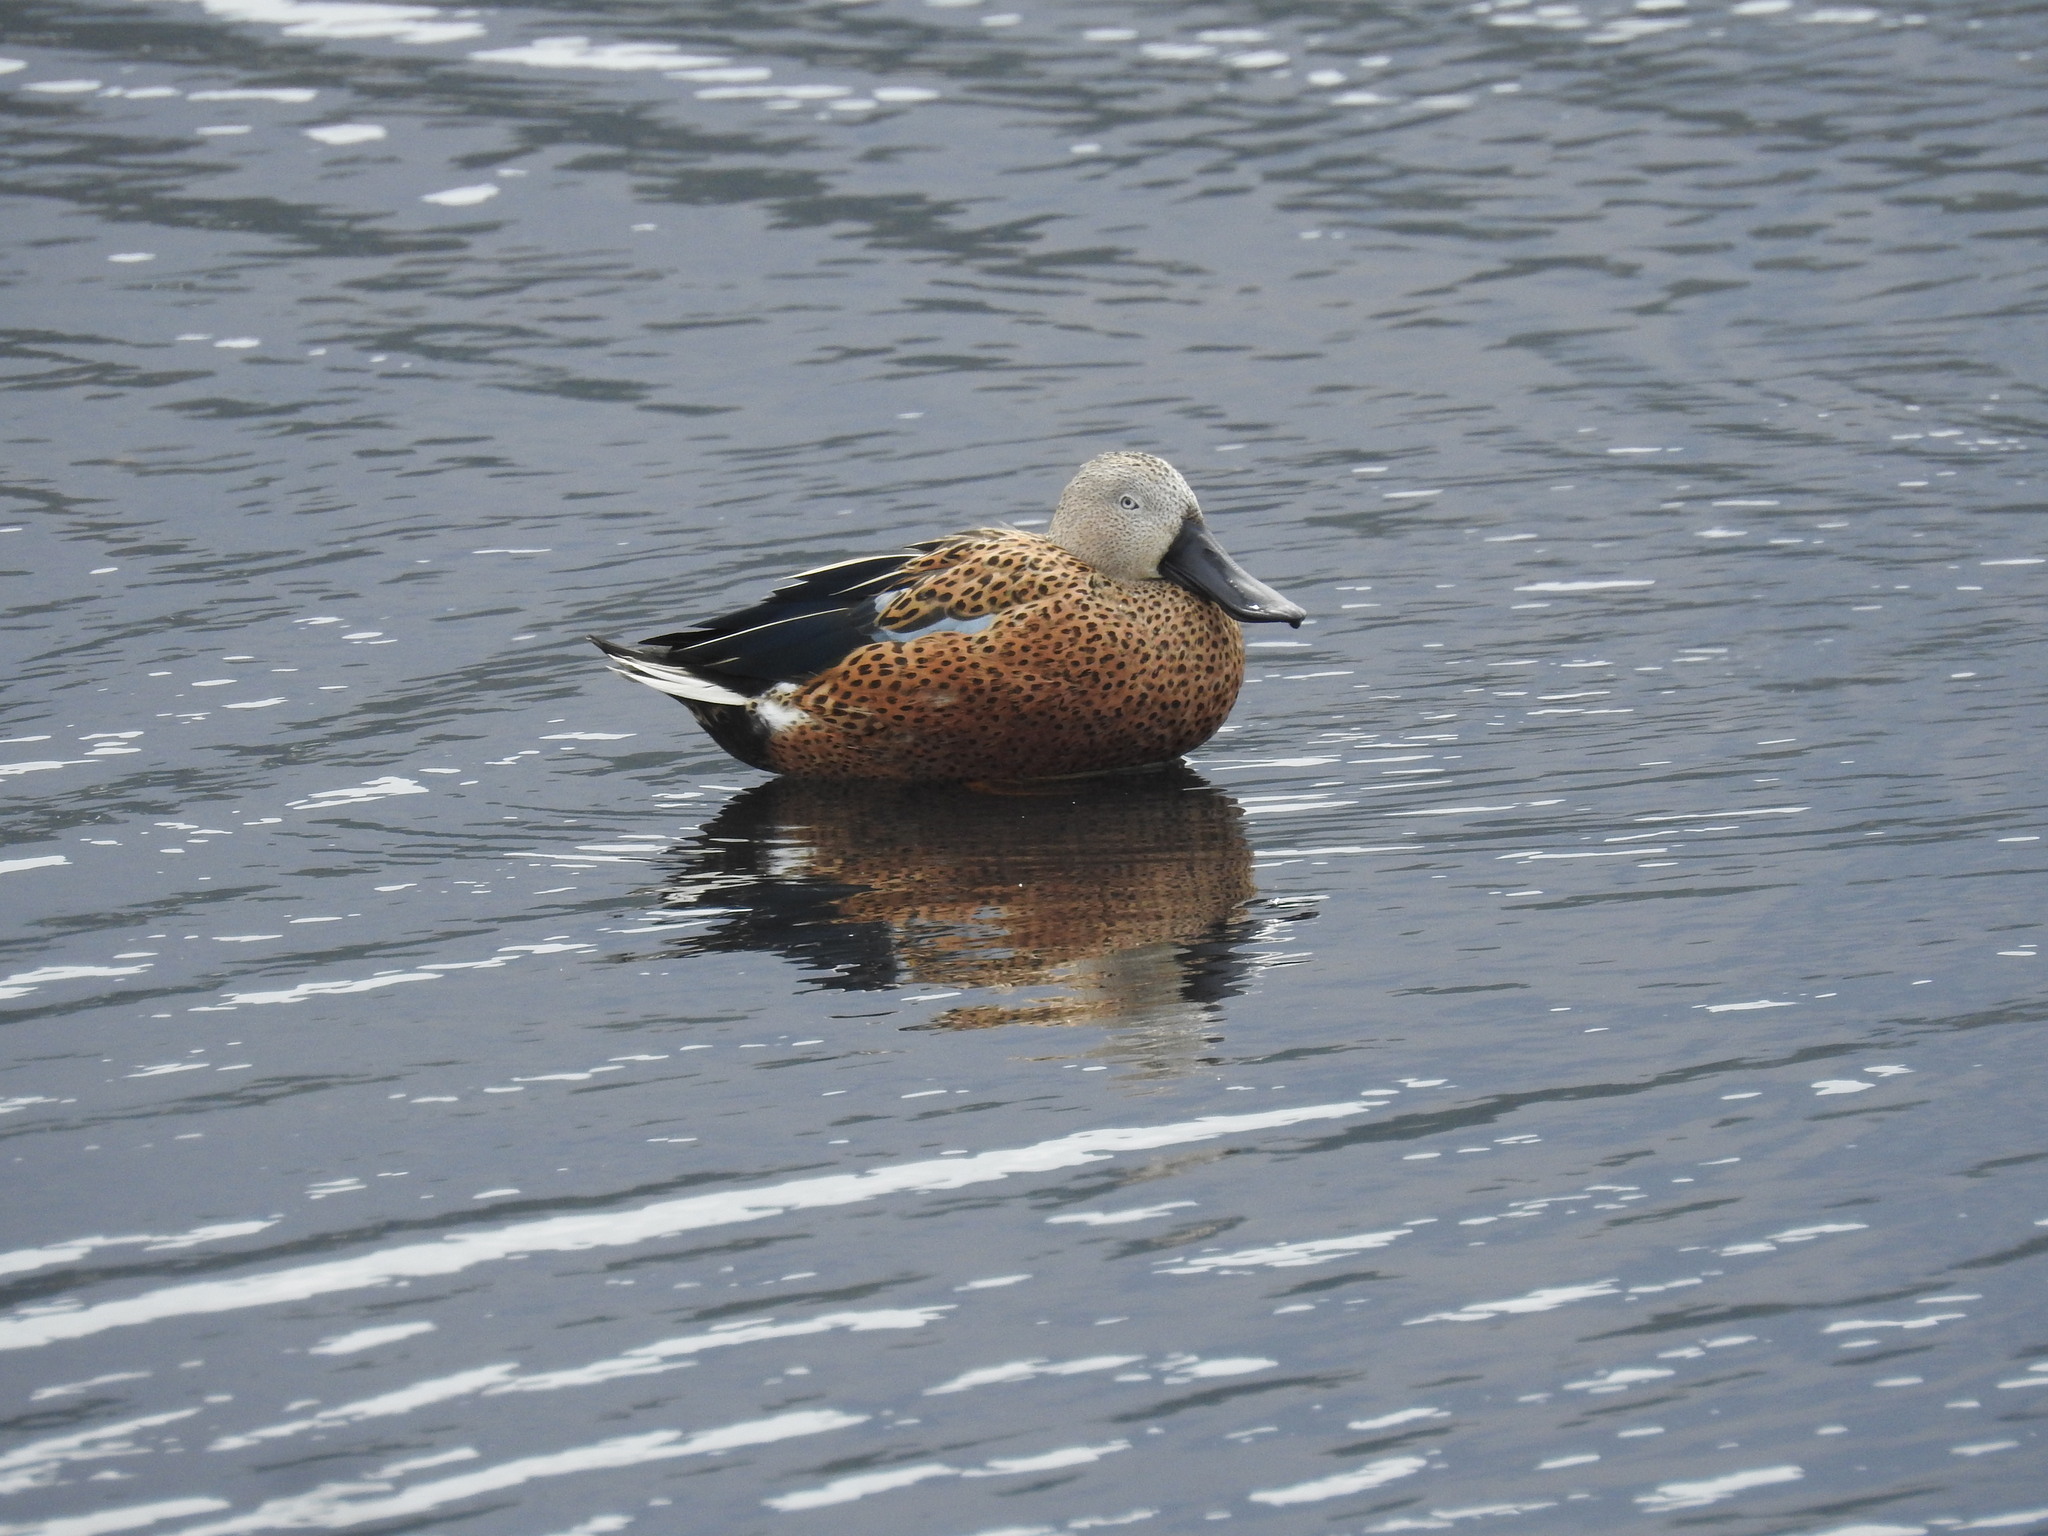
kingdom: Animalia
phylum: Chordata
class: Aves
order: Anseriformes
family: Anatidae
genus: Spatula
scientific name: Spatula platalea
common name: Red shoveler
